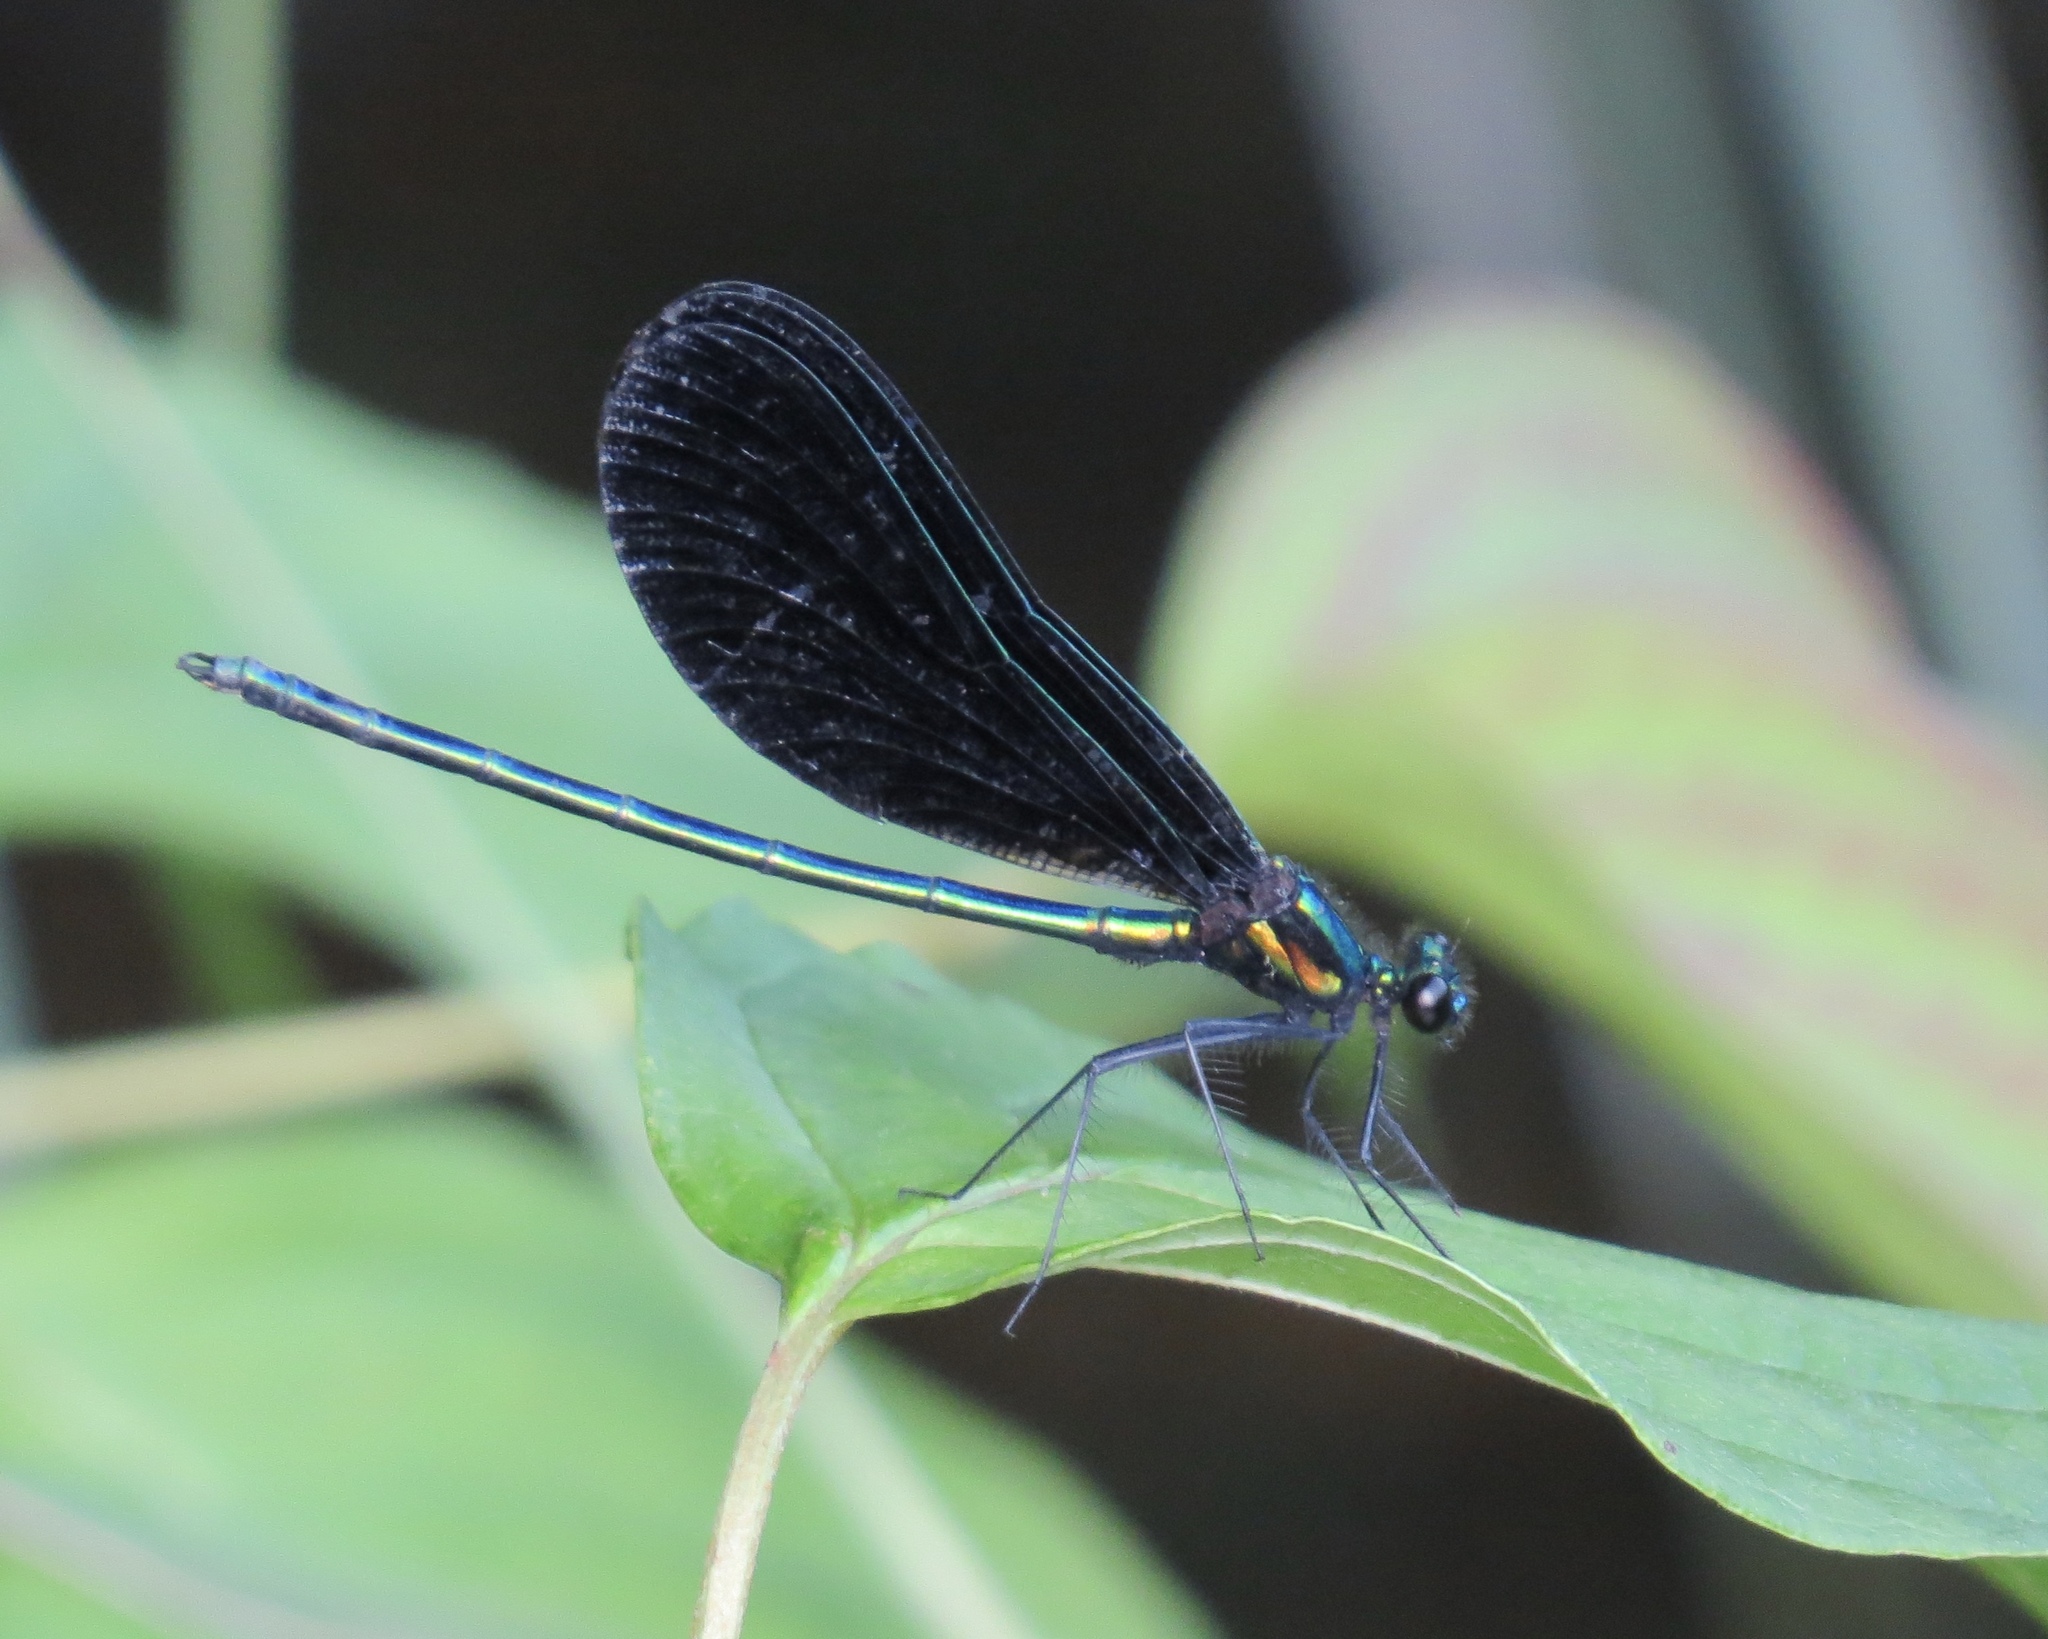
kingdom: Animalia
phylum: Arthropoda
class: Insecta
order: Odonata
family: Calopterygidae
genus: Calopteryx
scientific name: Calopteryx maculata
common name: Ebony jewelwing
